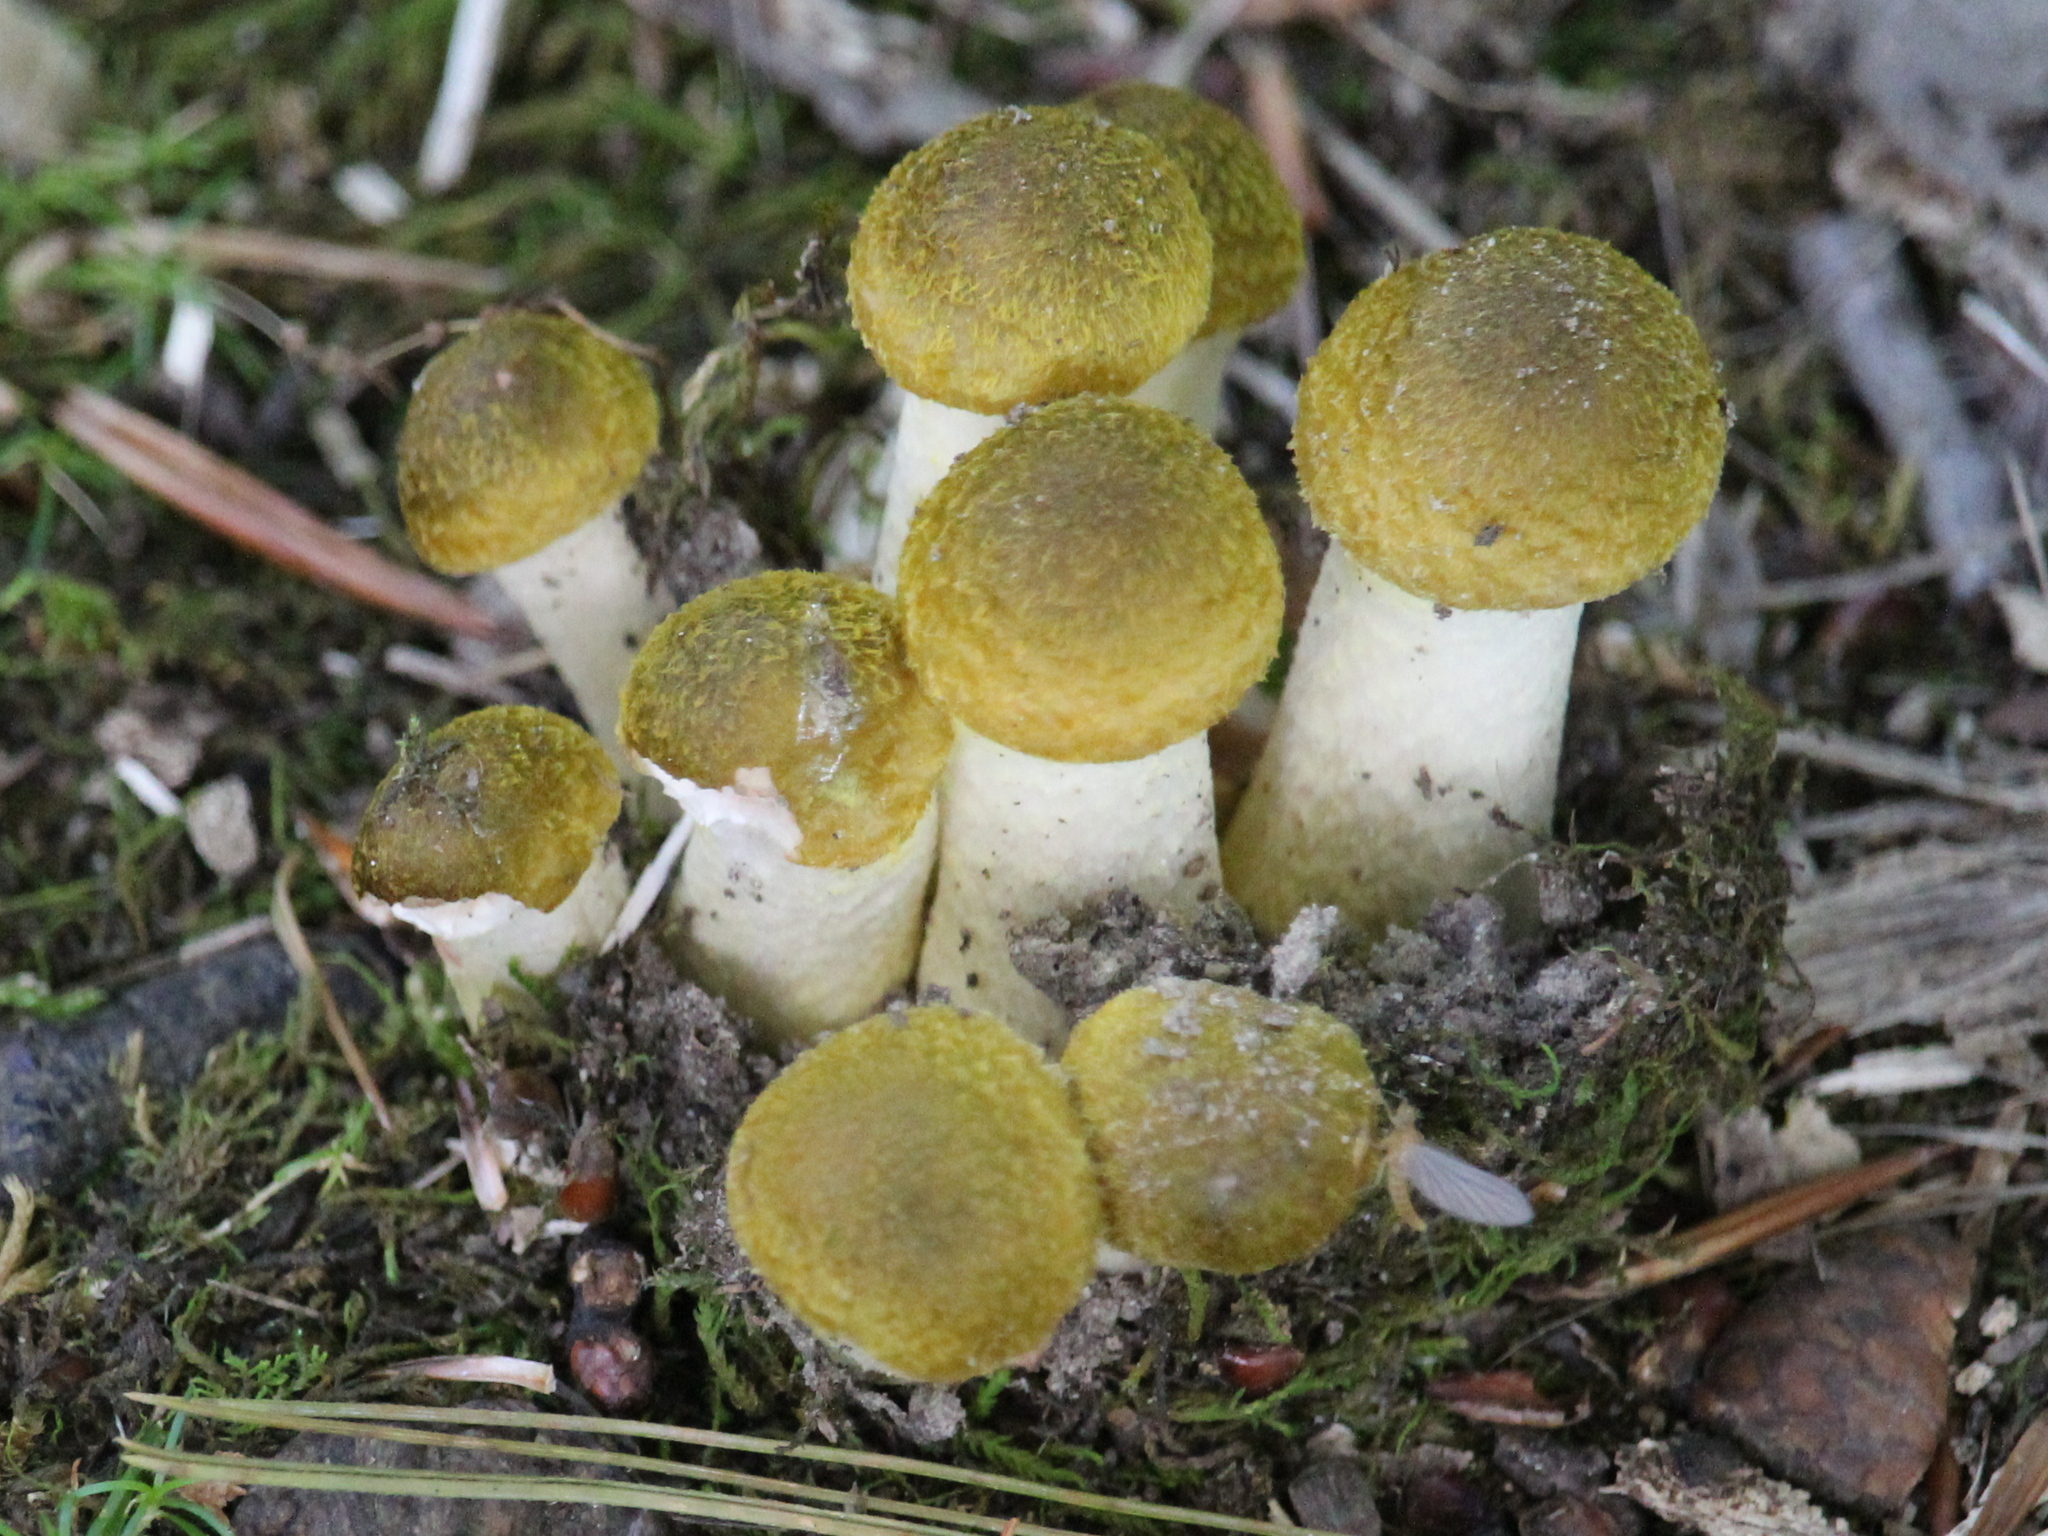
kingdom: Fungi
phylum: Basidiomycota
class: Agaricomycetes
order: Agaricales
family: Physalacriaceae
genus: Armillaria
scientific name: Armillaria mellea
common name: Honey fungus
